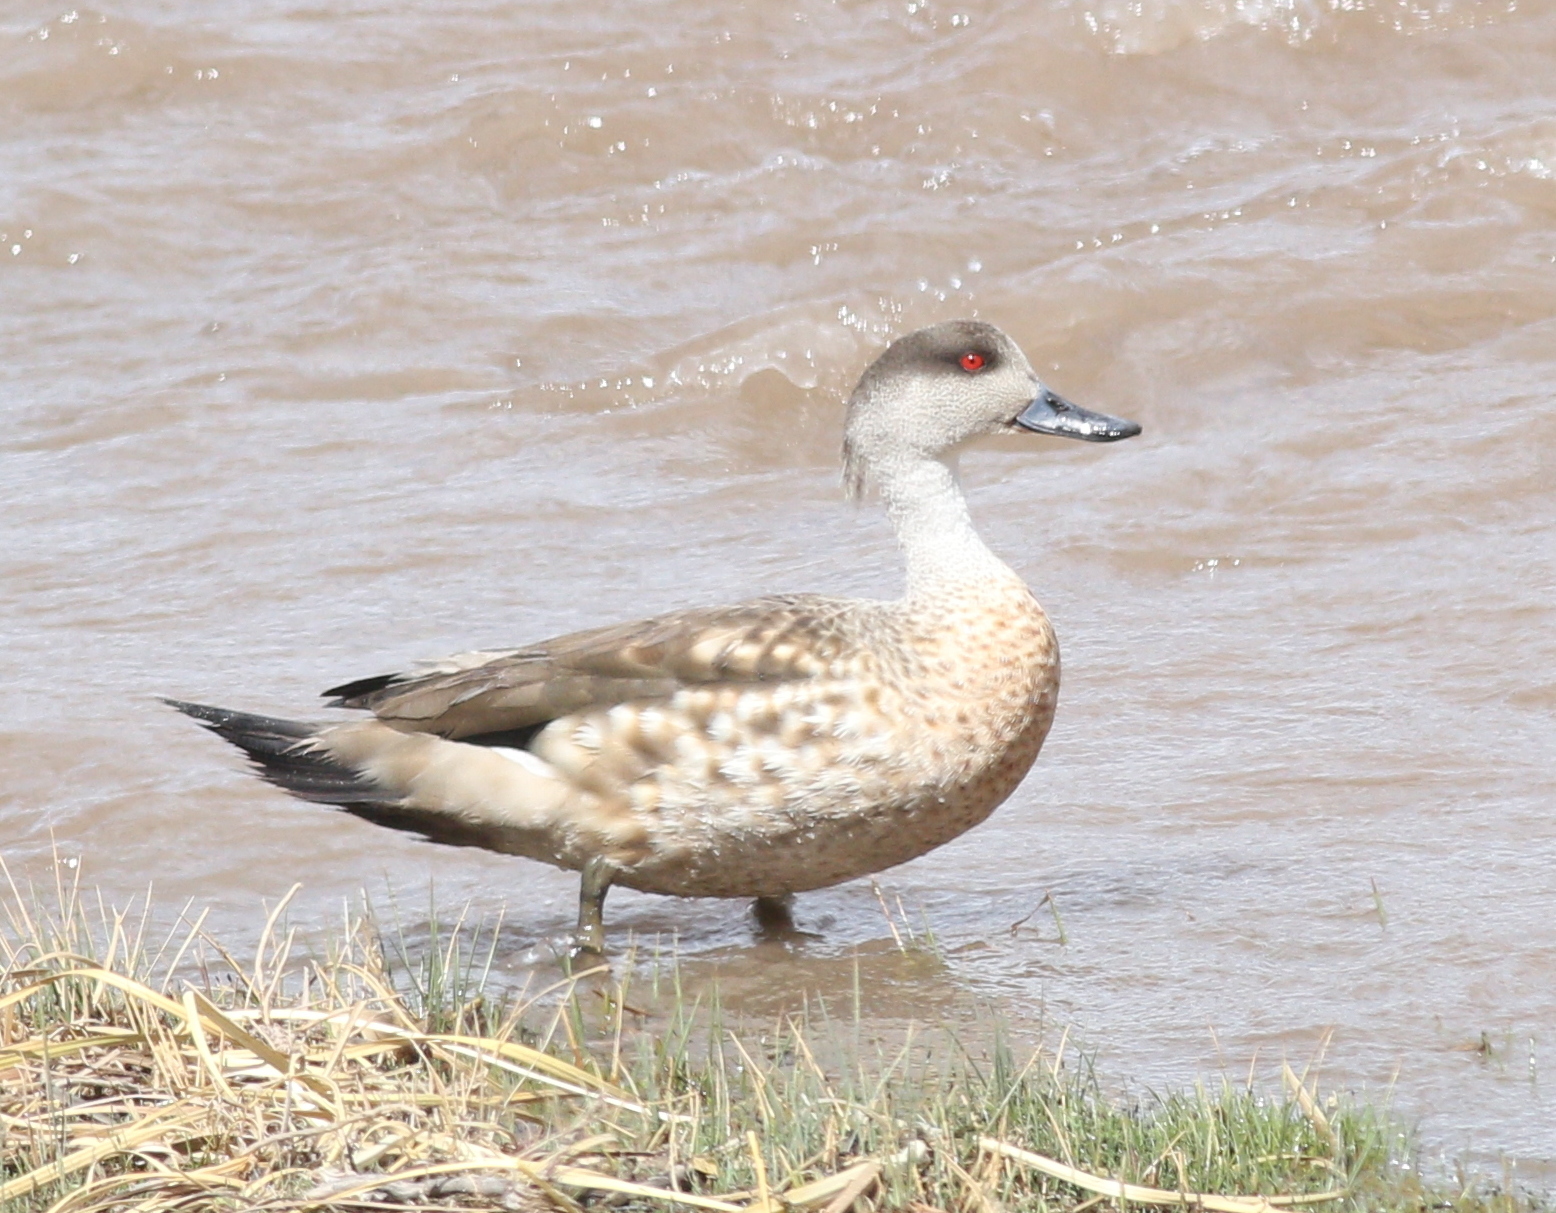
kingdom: Animalia
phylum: Chordata
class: Aves
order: Anseriformes
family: Anatidae
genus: Lophonetta
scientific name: Lophonetta specularioides
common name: Crested duck
